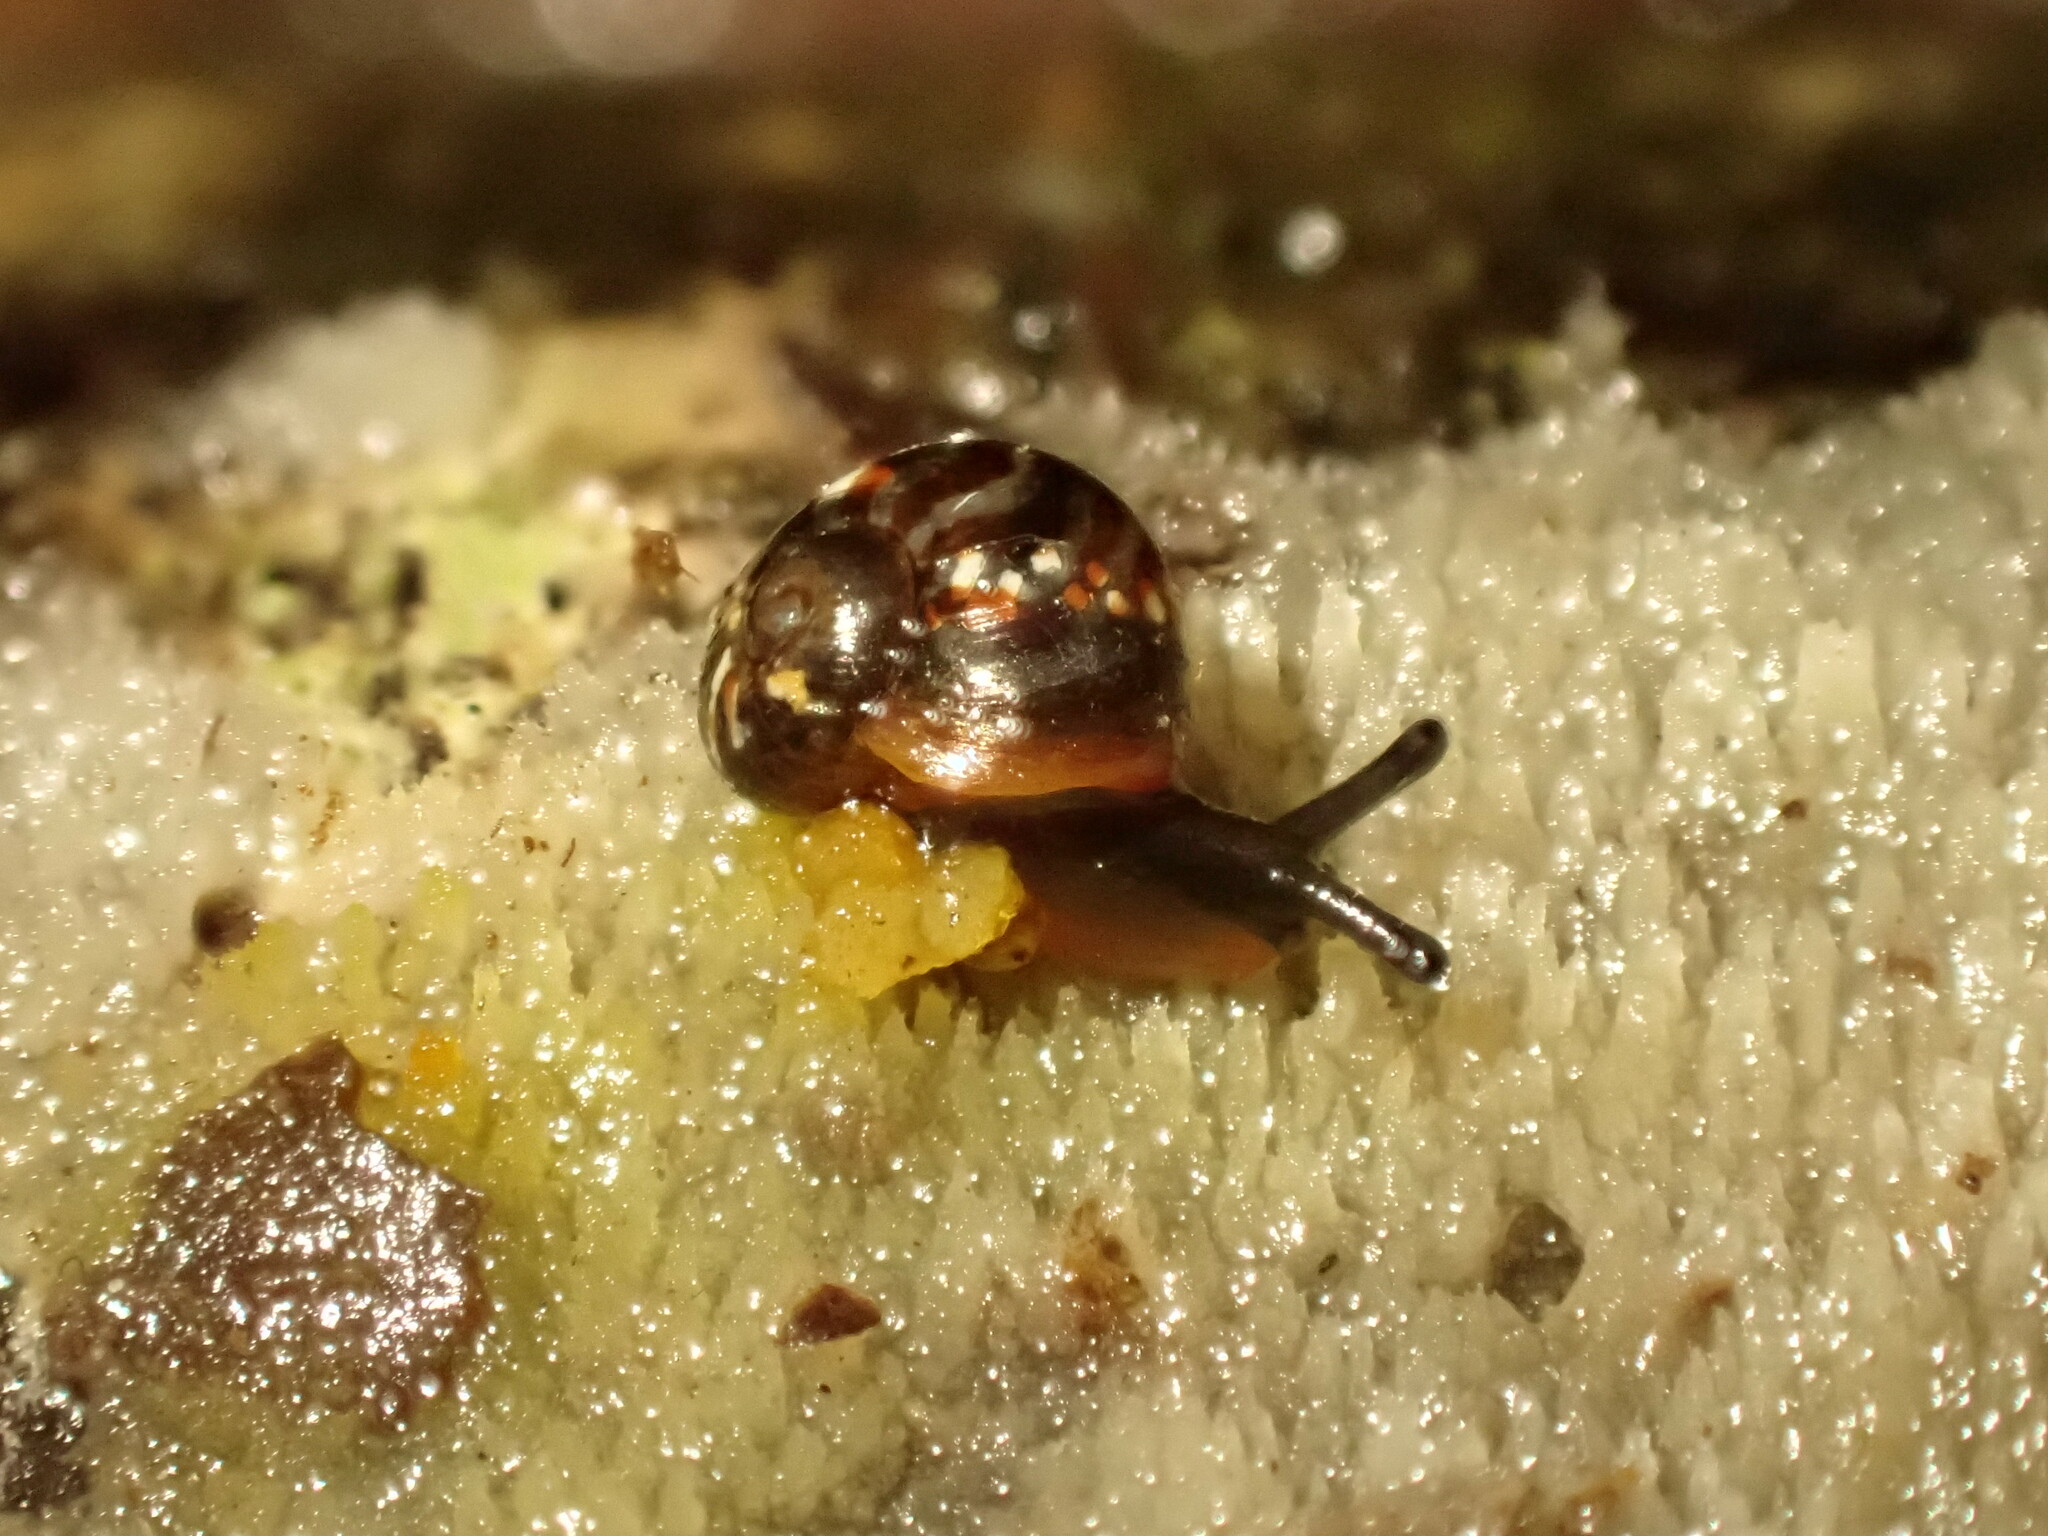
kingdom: Animalia
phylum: Mollusca
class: Gastropoda
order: Stylommatophora
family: Charopidae
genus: Flammulina
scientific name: Flammulina zebra
